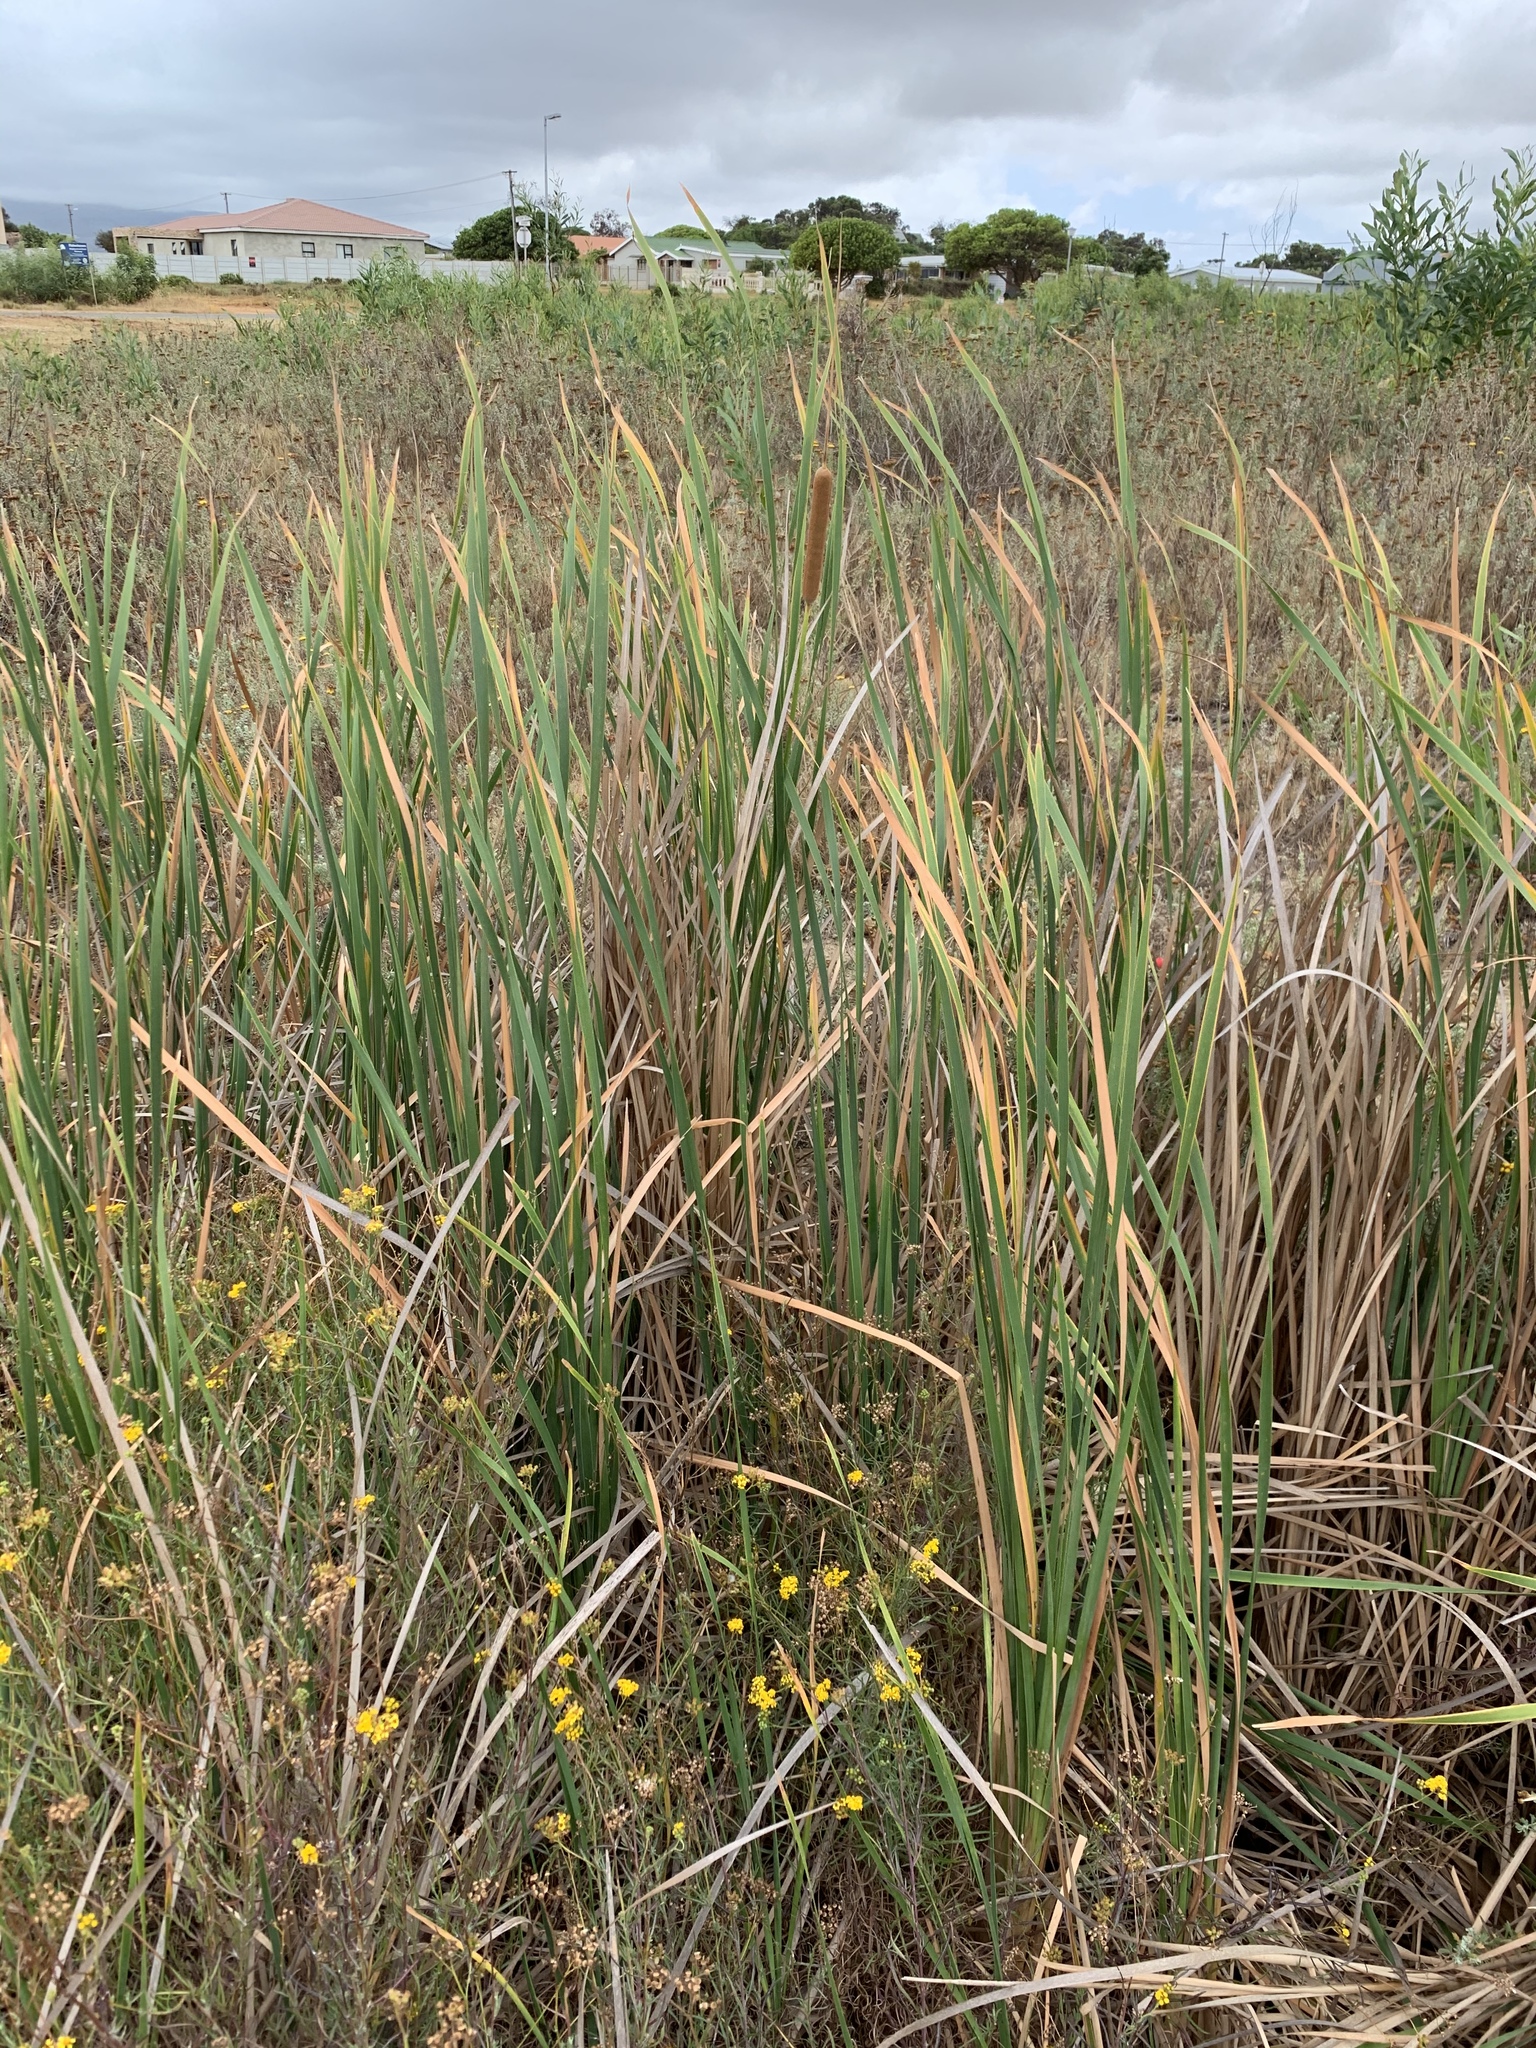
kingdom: Plantae
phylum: Tracheophyta
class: Liliopsida
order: Poales
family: Typhaceae
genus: Typha
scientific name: Typha capensis
